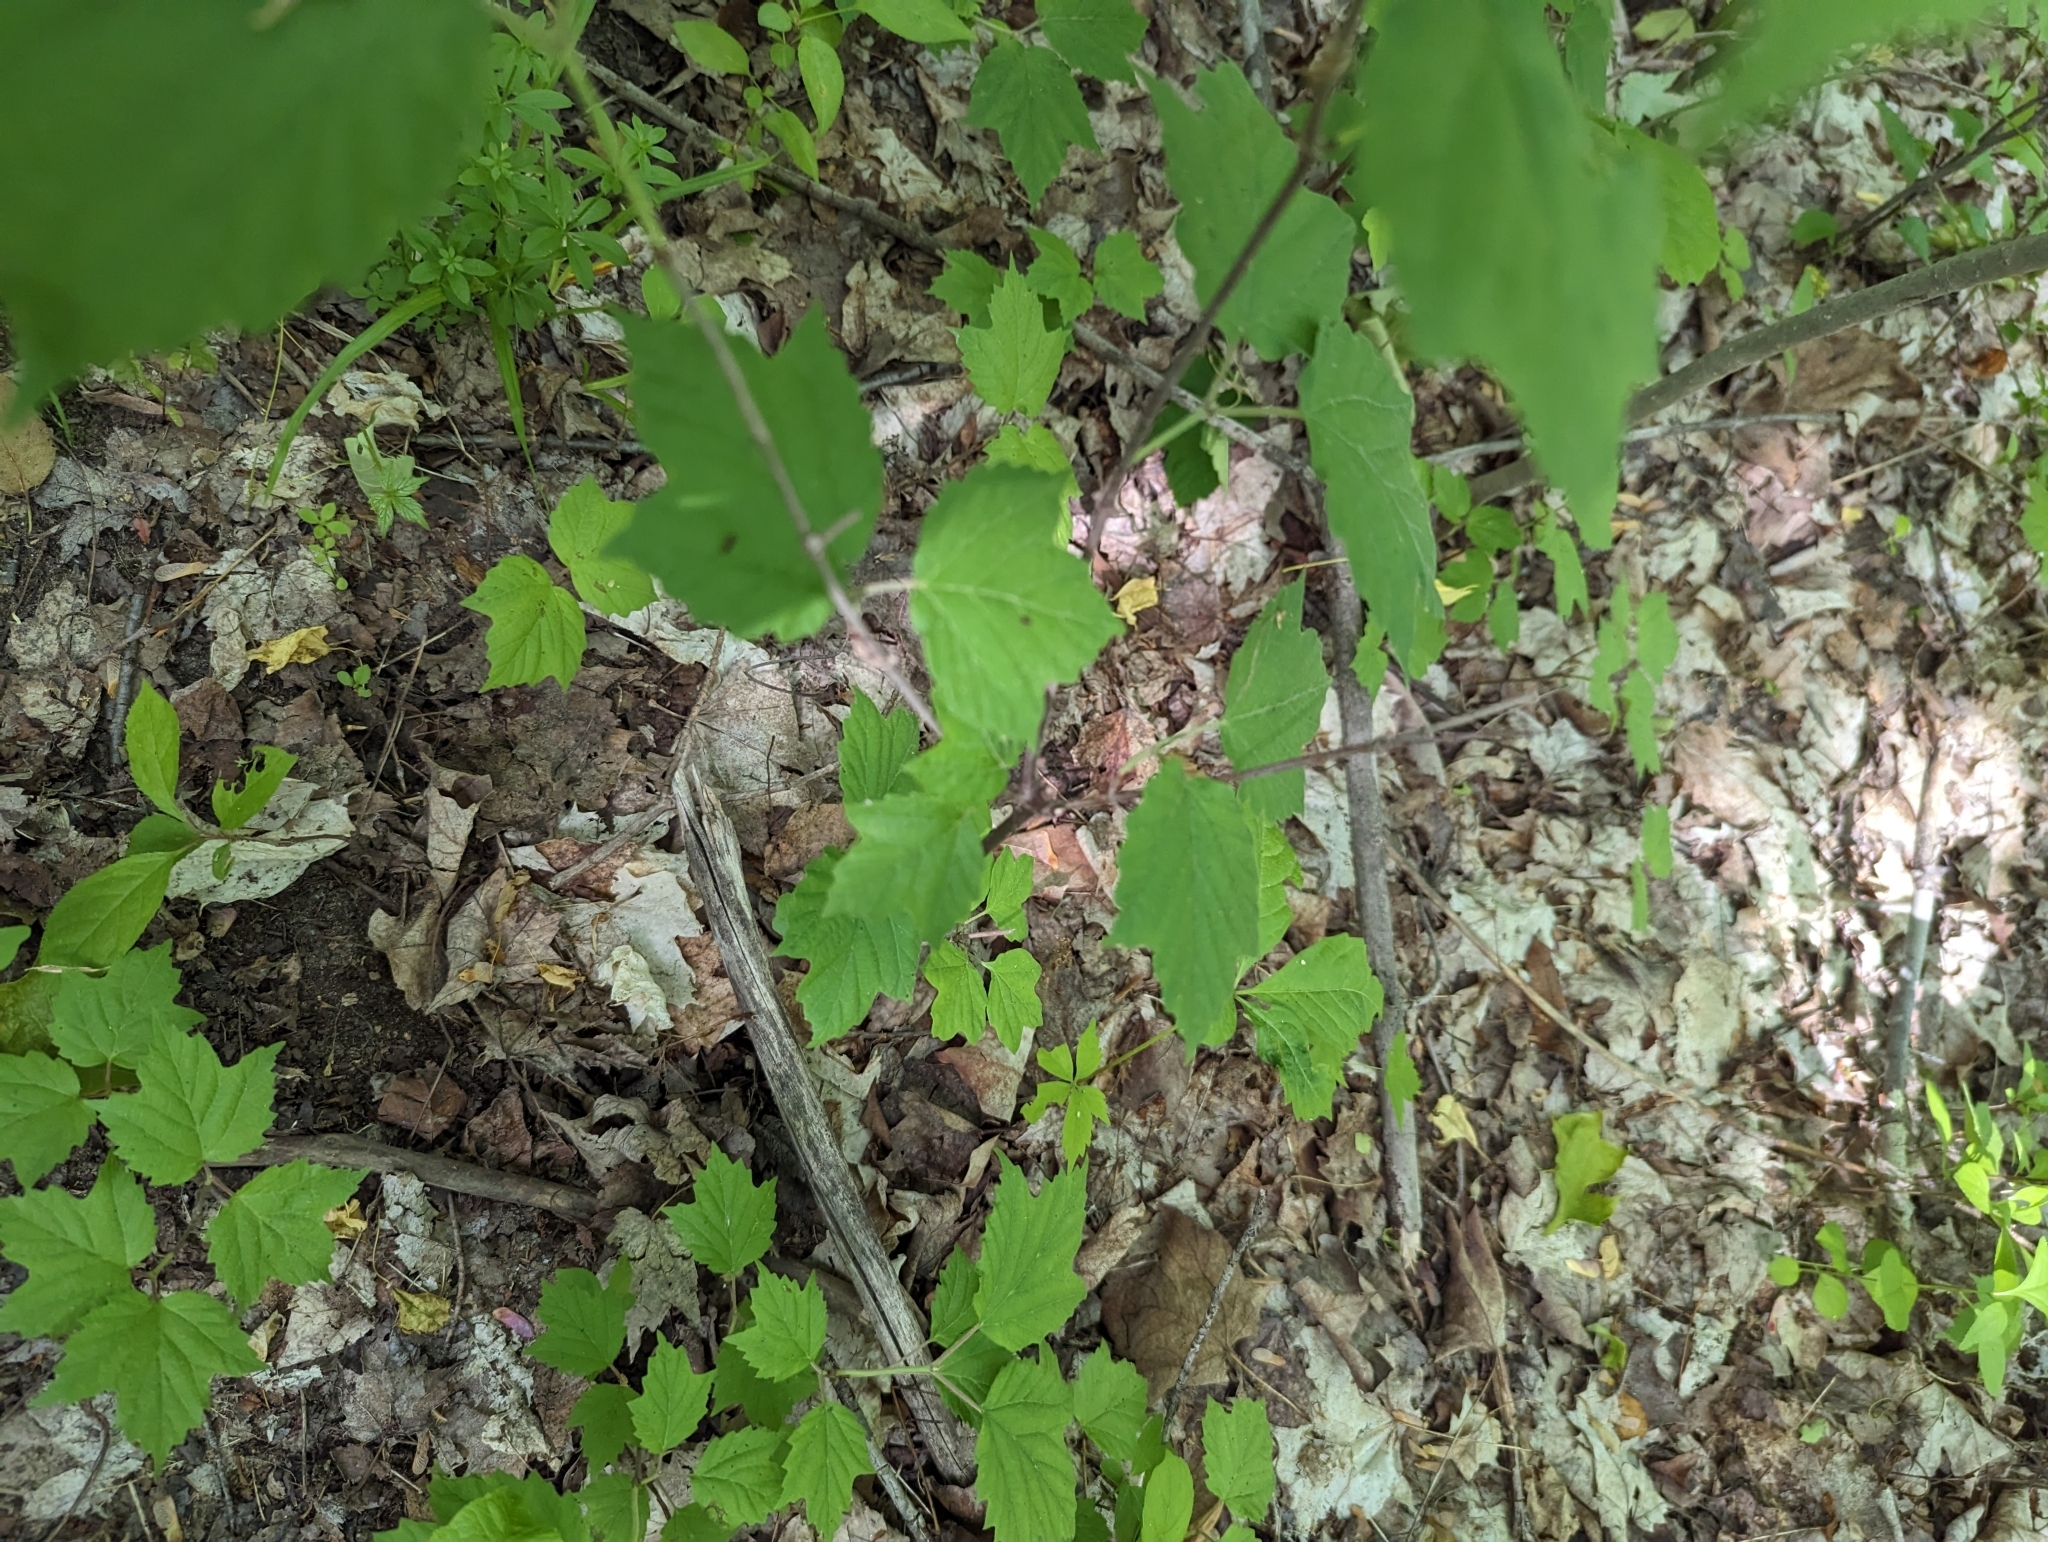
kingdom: Plantae
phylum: Tracheophyta
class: Magnoliopsida
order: Dipsacales
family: Viburnaceae
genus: Viburnum
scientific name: Viburnum acerifolium
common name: Dockmackie
